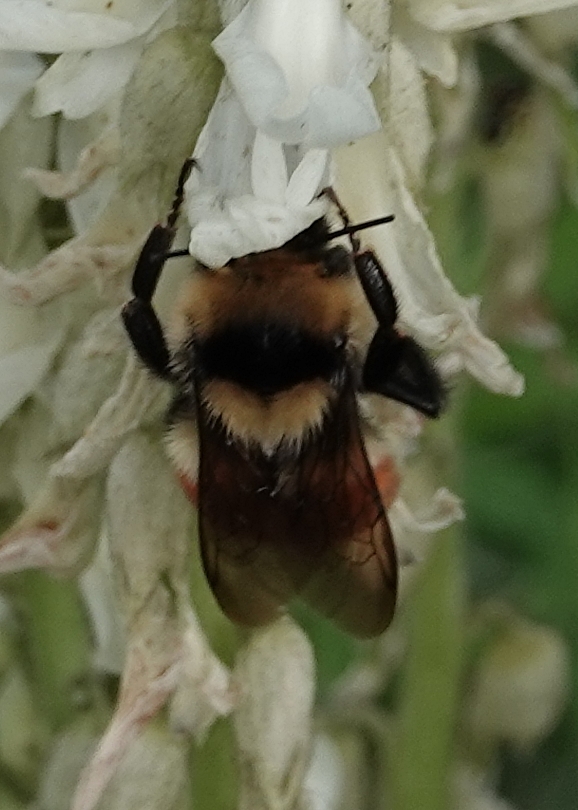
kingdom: Animalia
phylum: Arthropoda
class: Insecta
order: Hymenoptera
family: Apidae
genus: Bombus
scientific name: Bombus huntii
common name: Hunt bumble bee
